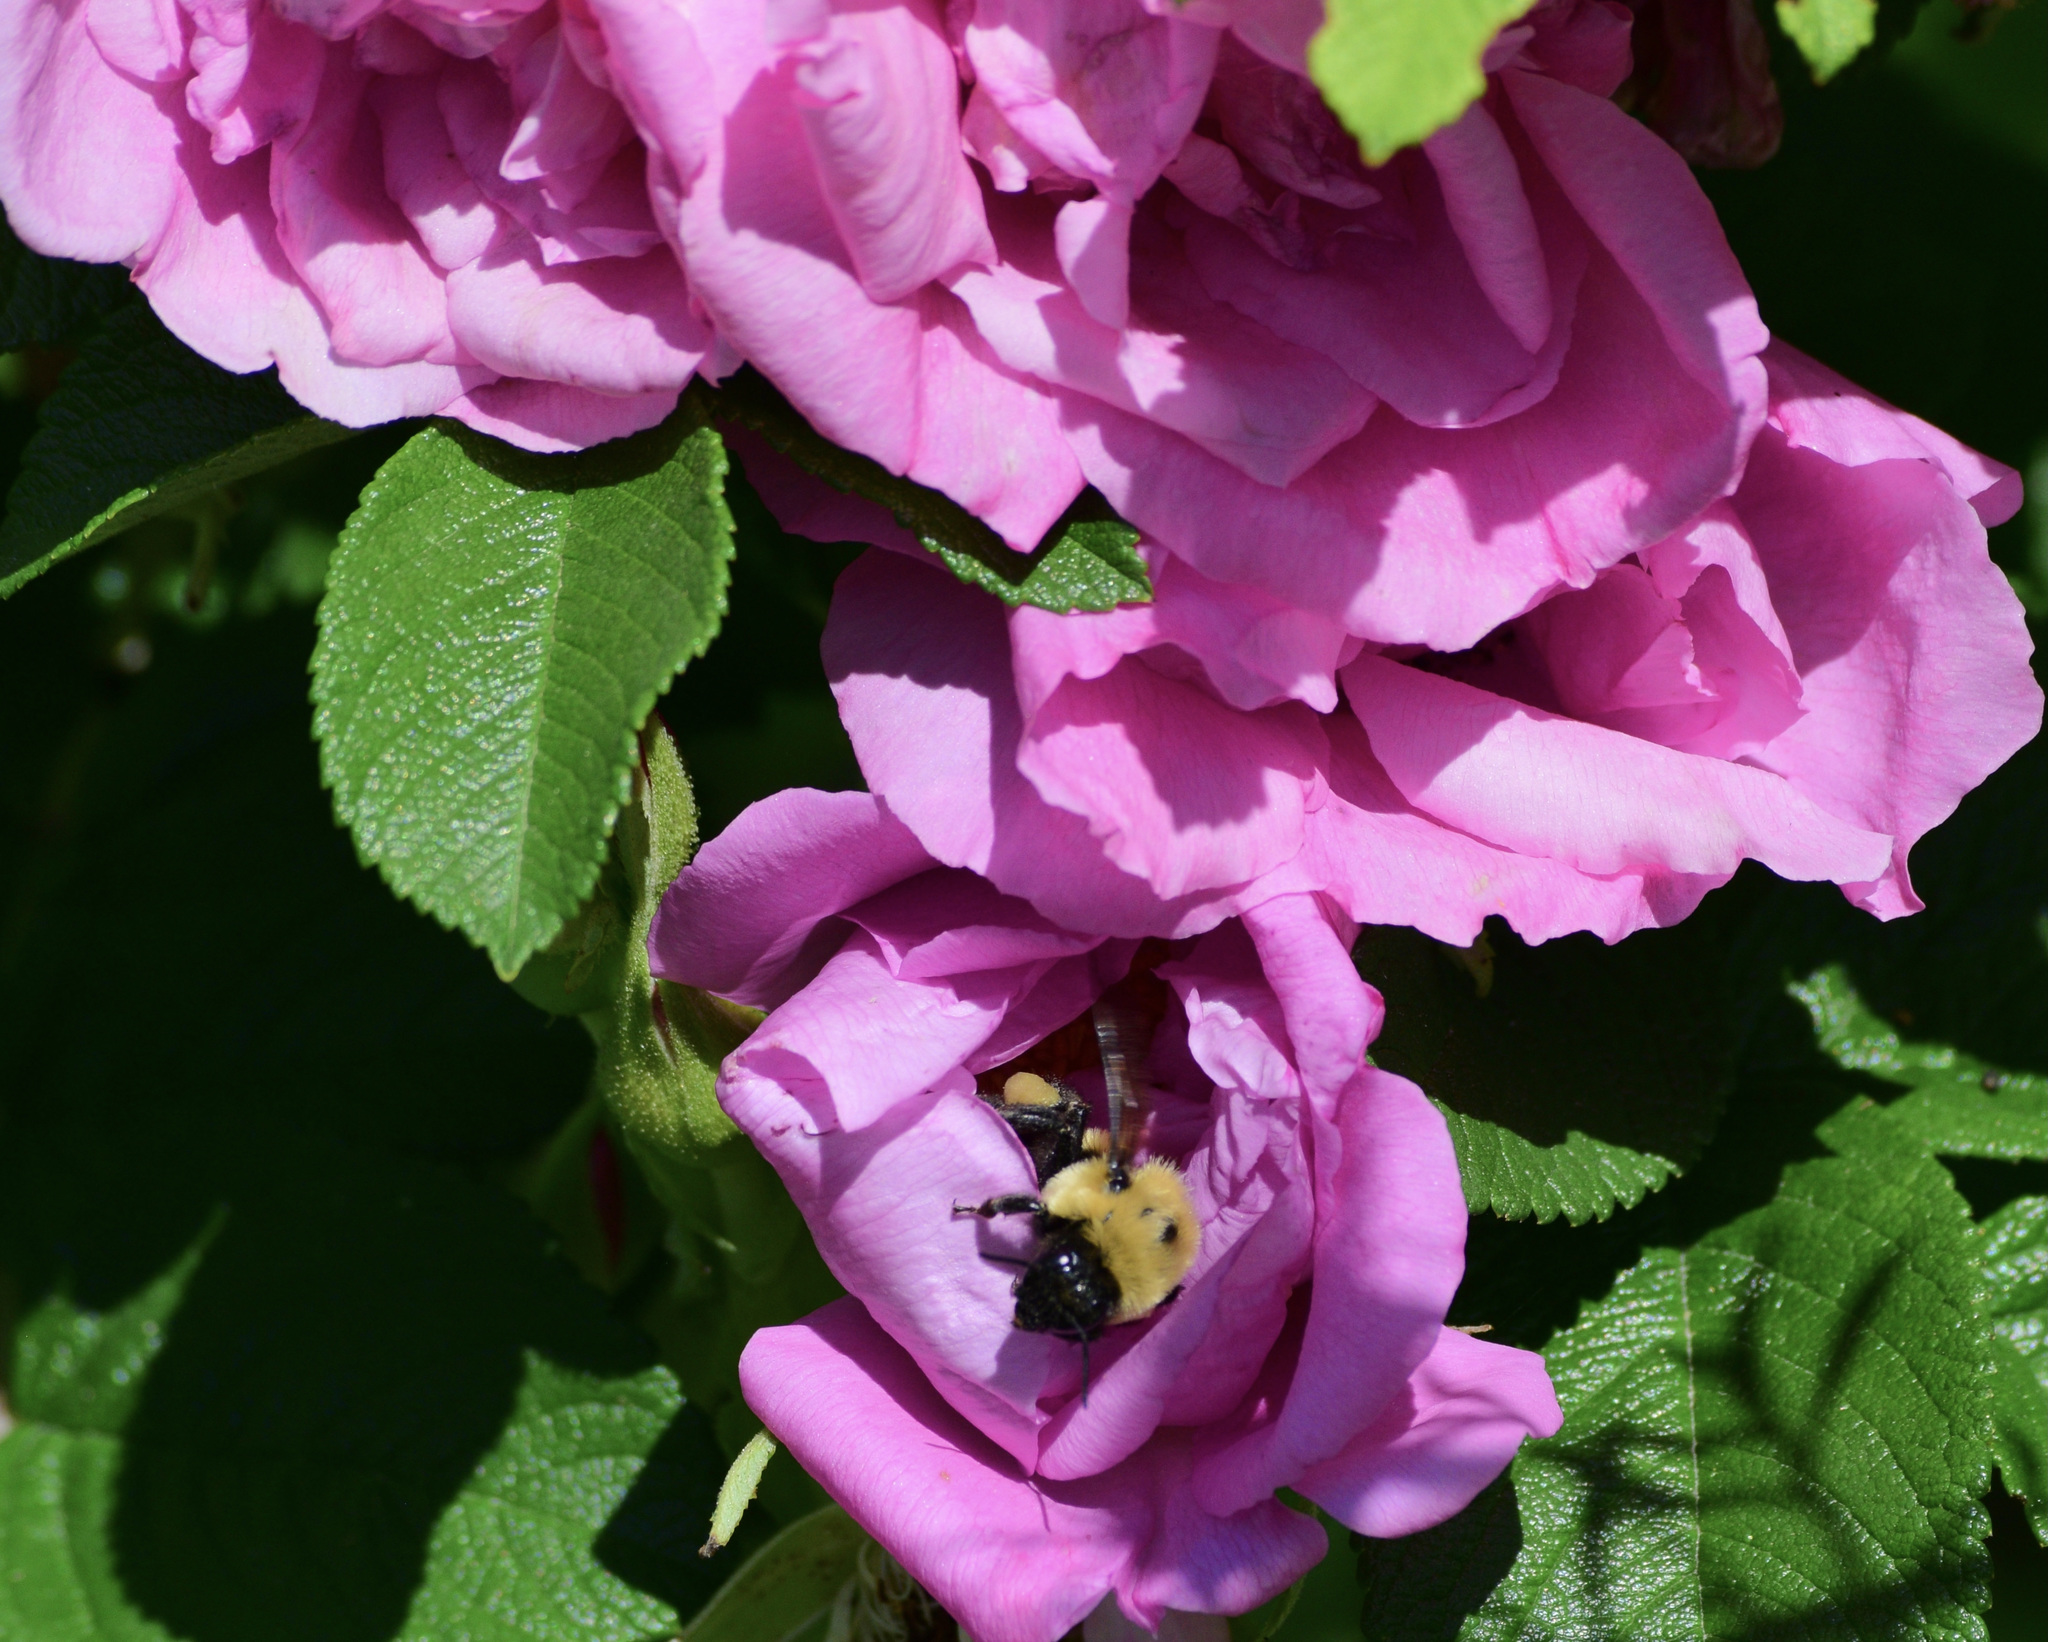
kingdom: Animalia
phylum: Arthropoda
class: Insecta
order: Hymenoptera
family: Apidae
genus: Bombus
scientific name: Bombus griseocollis
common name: Brown-belted bumble bee
